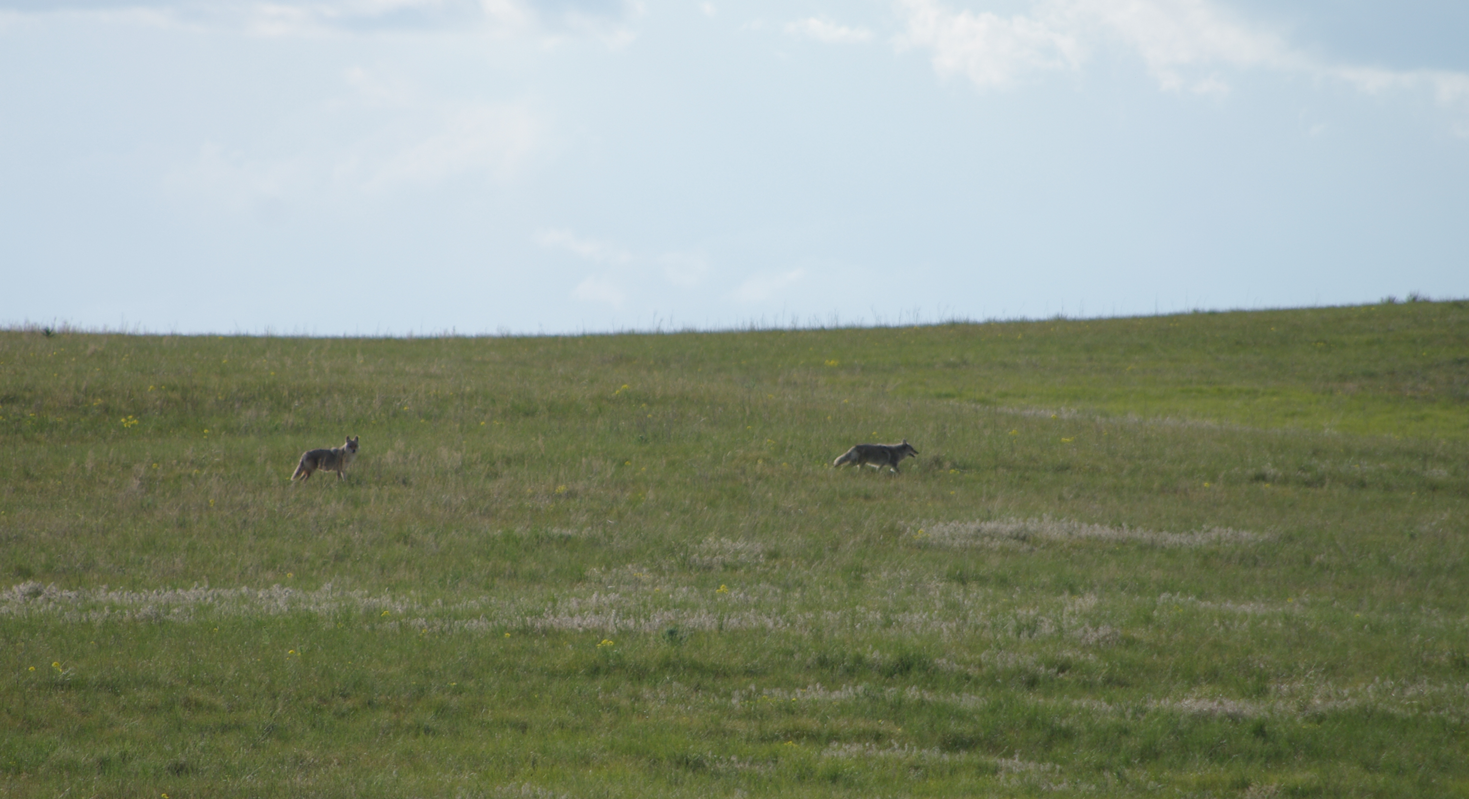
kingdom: Animalia
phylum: Chordata
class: Mammalia
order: Carnivora
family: Canidae
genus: Canis
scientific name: Canis latrans
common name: Coyote
